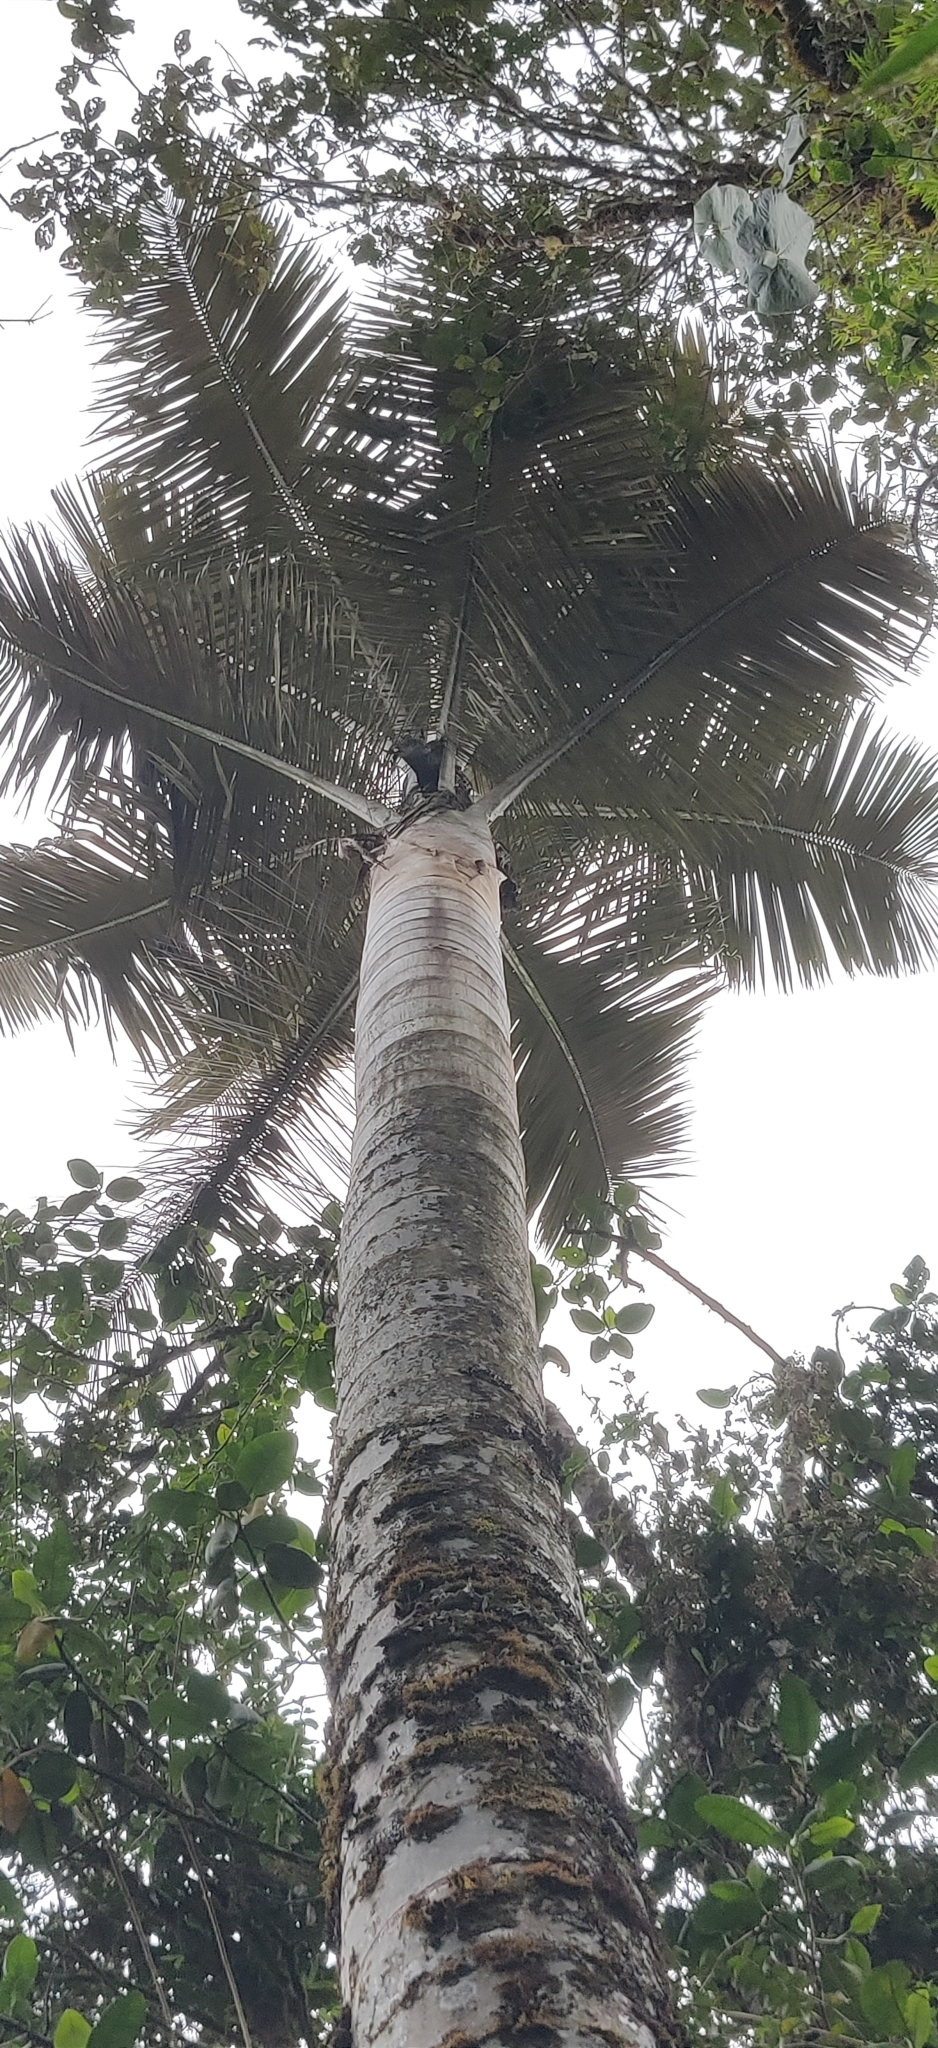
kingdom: Plantae
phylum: Tracheophyta
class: Liliopsida
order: Arecales
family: Arecaceae
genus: Ceroxylon
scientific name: Ceroxylon quindiuense
